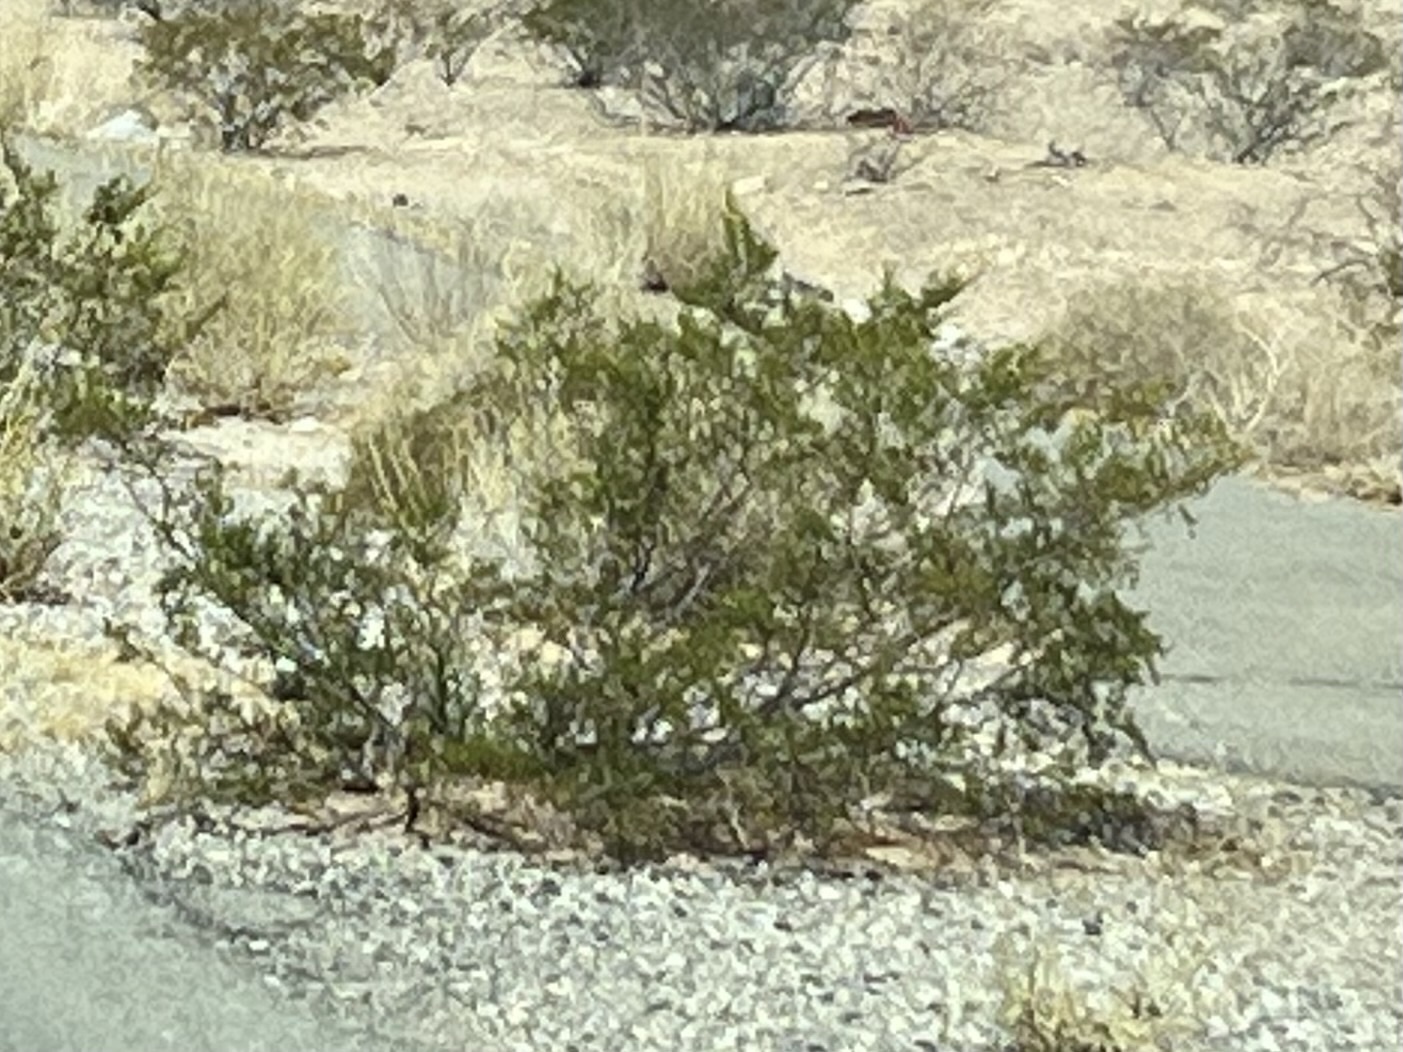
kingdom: Plantae
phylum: Tracheophyta
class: Magnoliopsida
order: Zygophyllales
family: Zygophyllaceae
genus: Larrea
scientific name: Larrea tridentata
